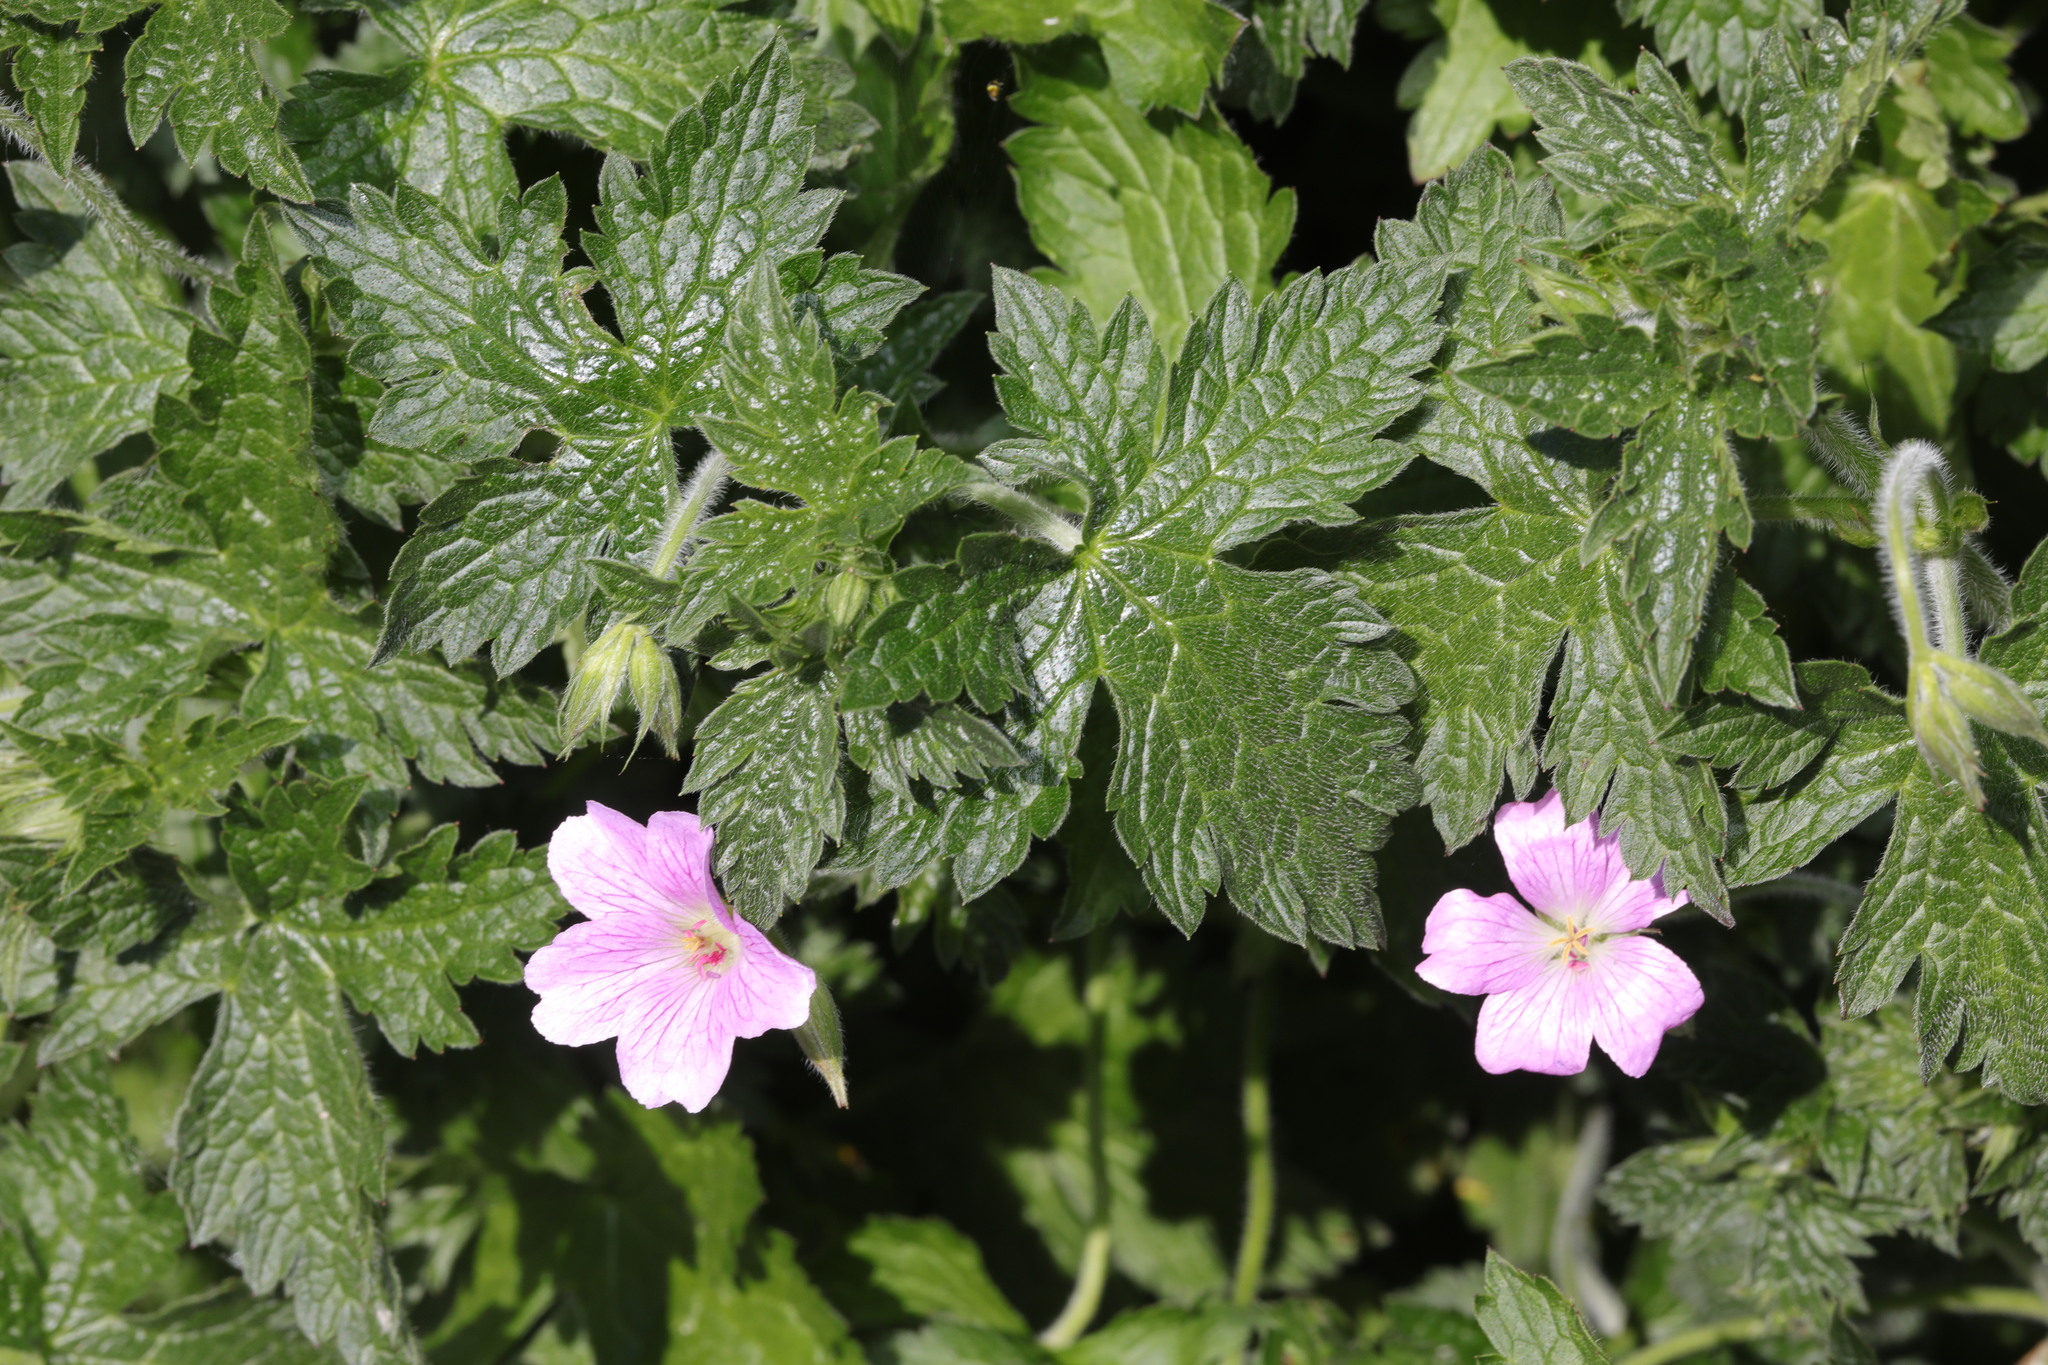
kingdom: Plantae
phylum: Tracheophyta
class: Magnoliopsida
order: Geraniales
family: Geraniaceae
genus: Geranium
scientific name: Geranium oxonianum
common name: Druce's crane's-bill
